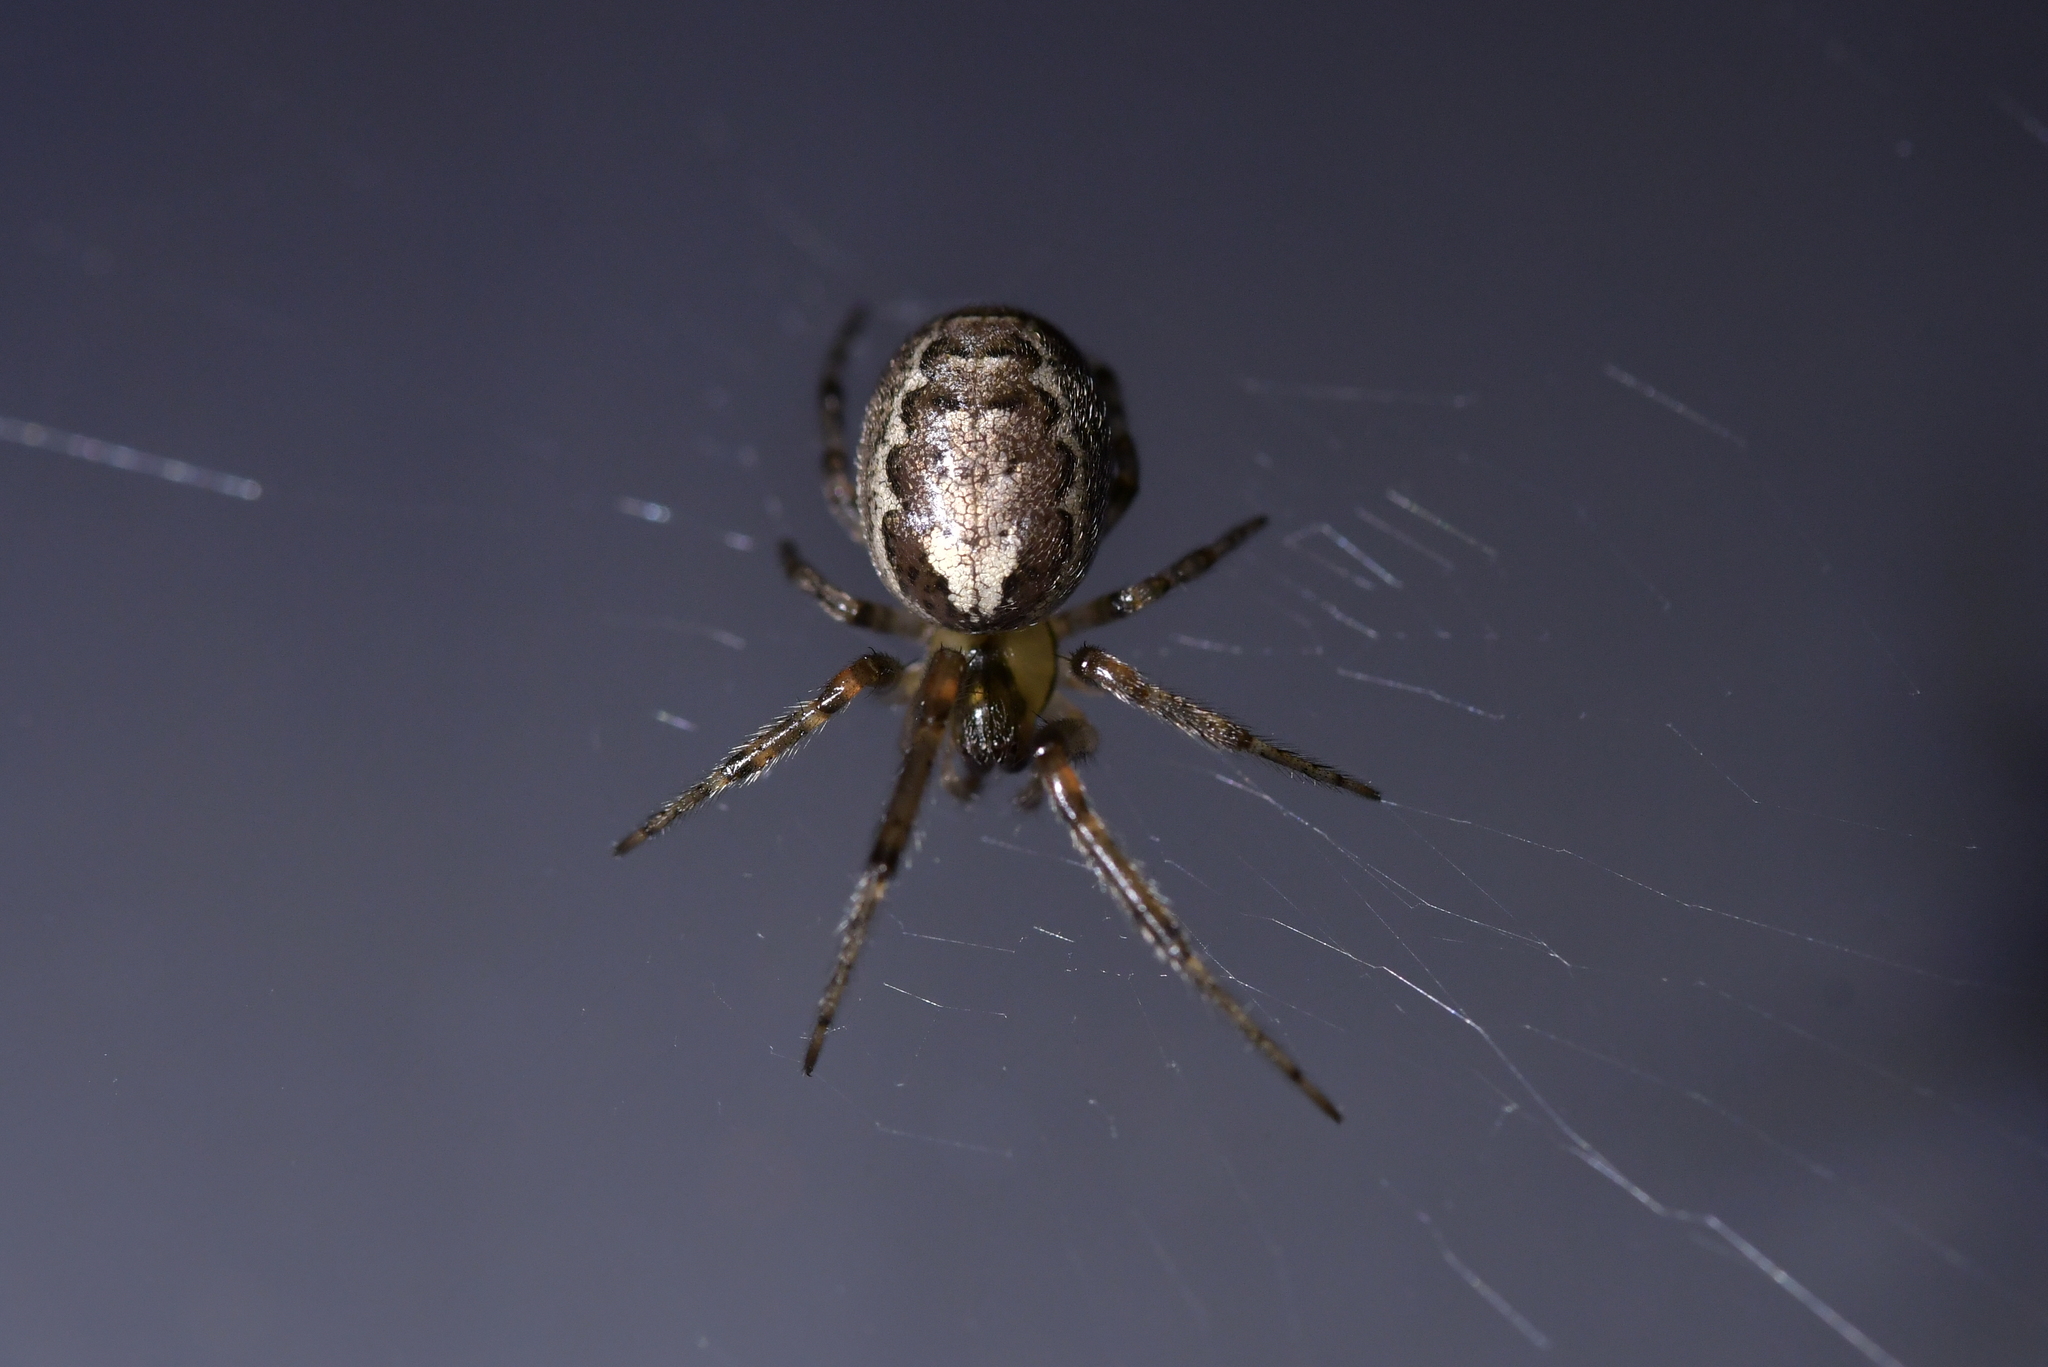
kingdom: Animalia
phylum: Arthropoda
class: Arachnida
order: Araneae
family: Araneidae
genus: Zygiella
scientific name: Zygiella x-notata
